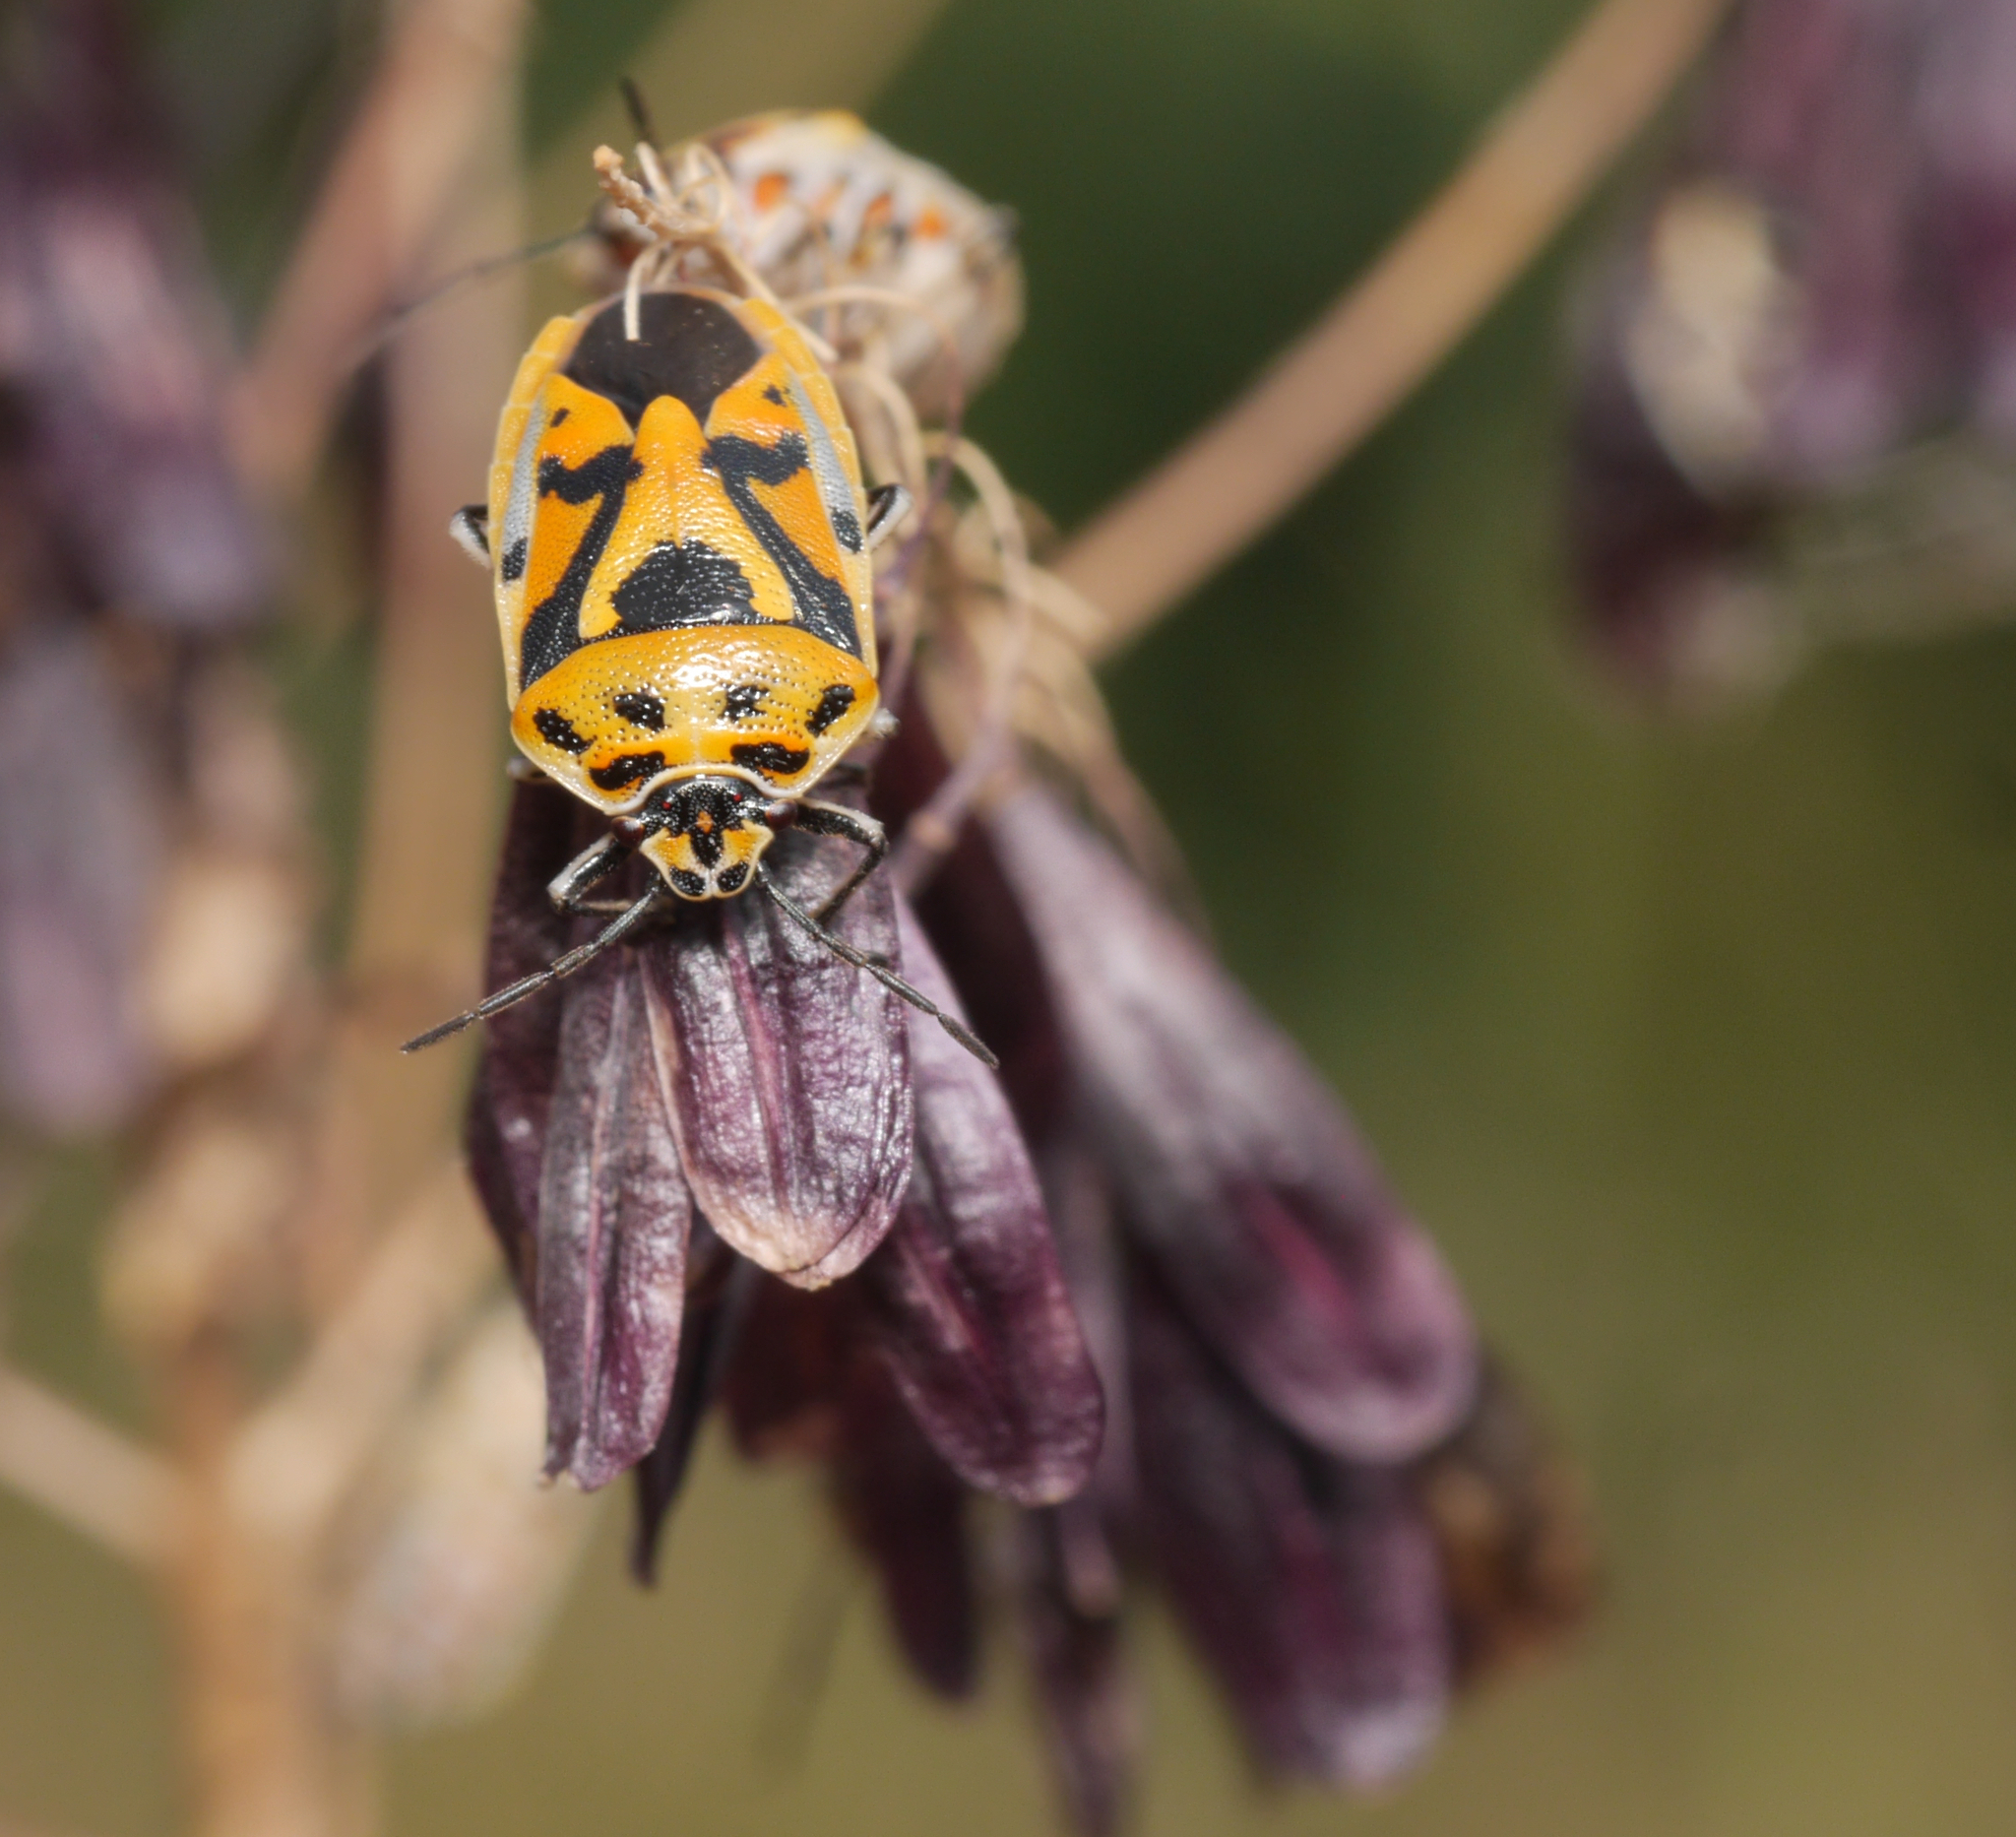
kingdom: Animalia
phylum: Arthropoda
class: Insecta
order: Hemiptera
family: Pentatomidae
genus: Eurydema
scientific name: Eurydema ornata
